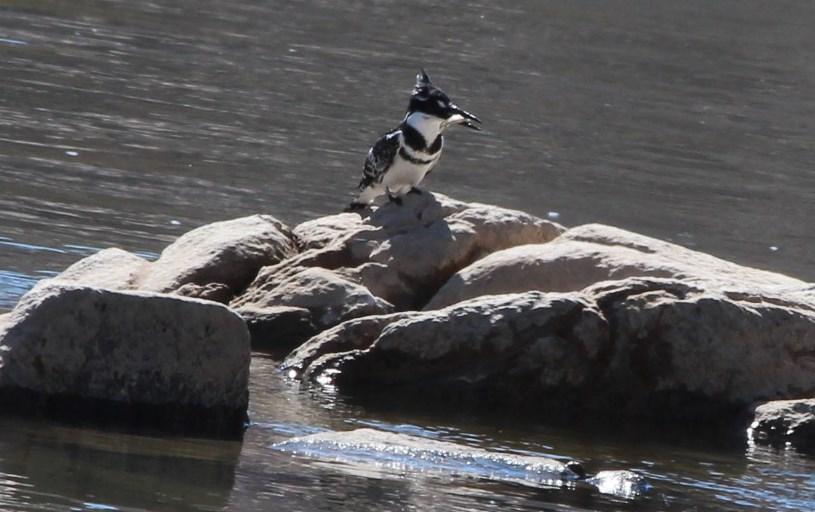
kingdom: Animalia
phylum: Chordata
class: Aves
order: Coraciiformes
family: Alcedinidae
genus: Ceryle
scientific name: Ceryle rudis
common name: Pied kingfisher
